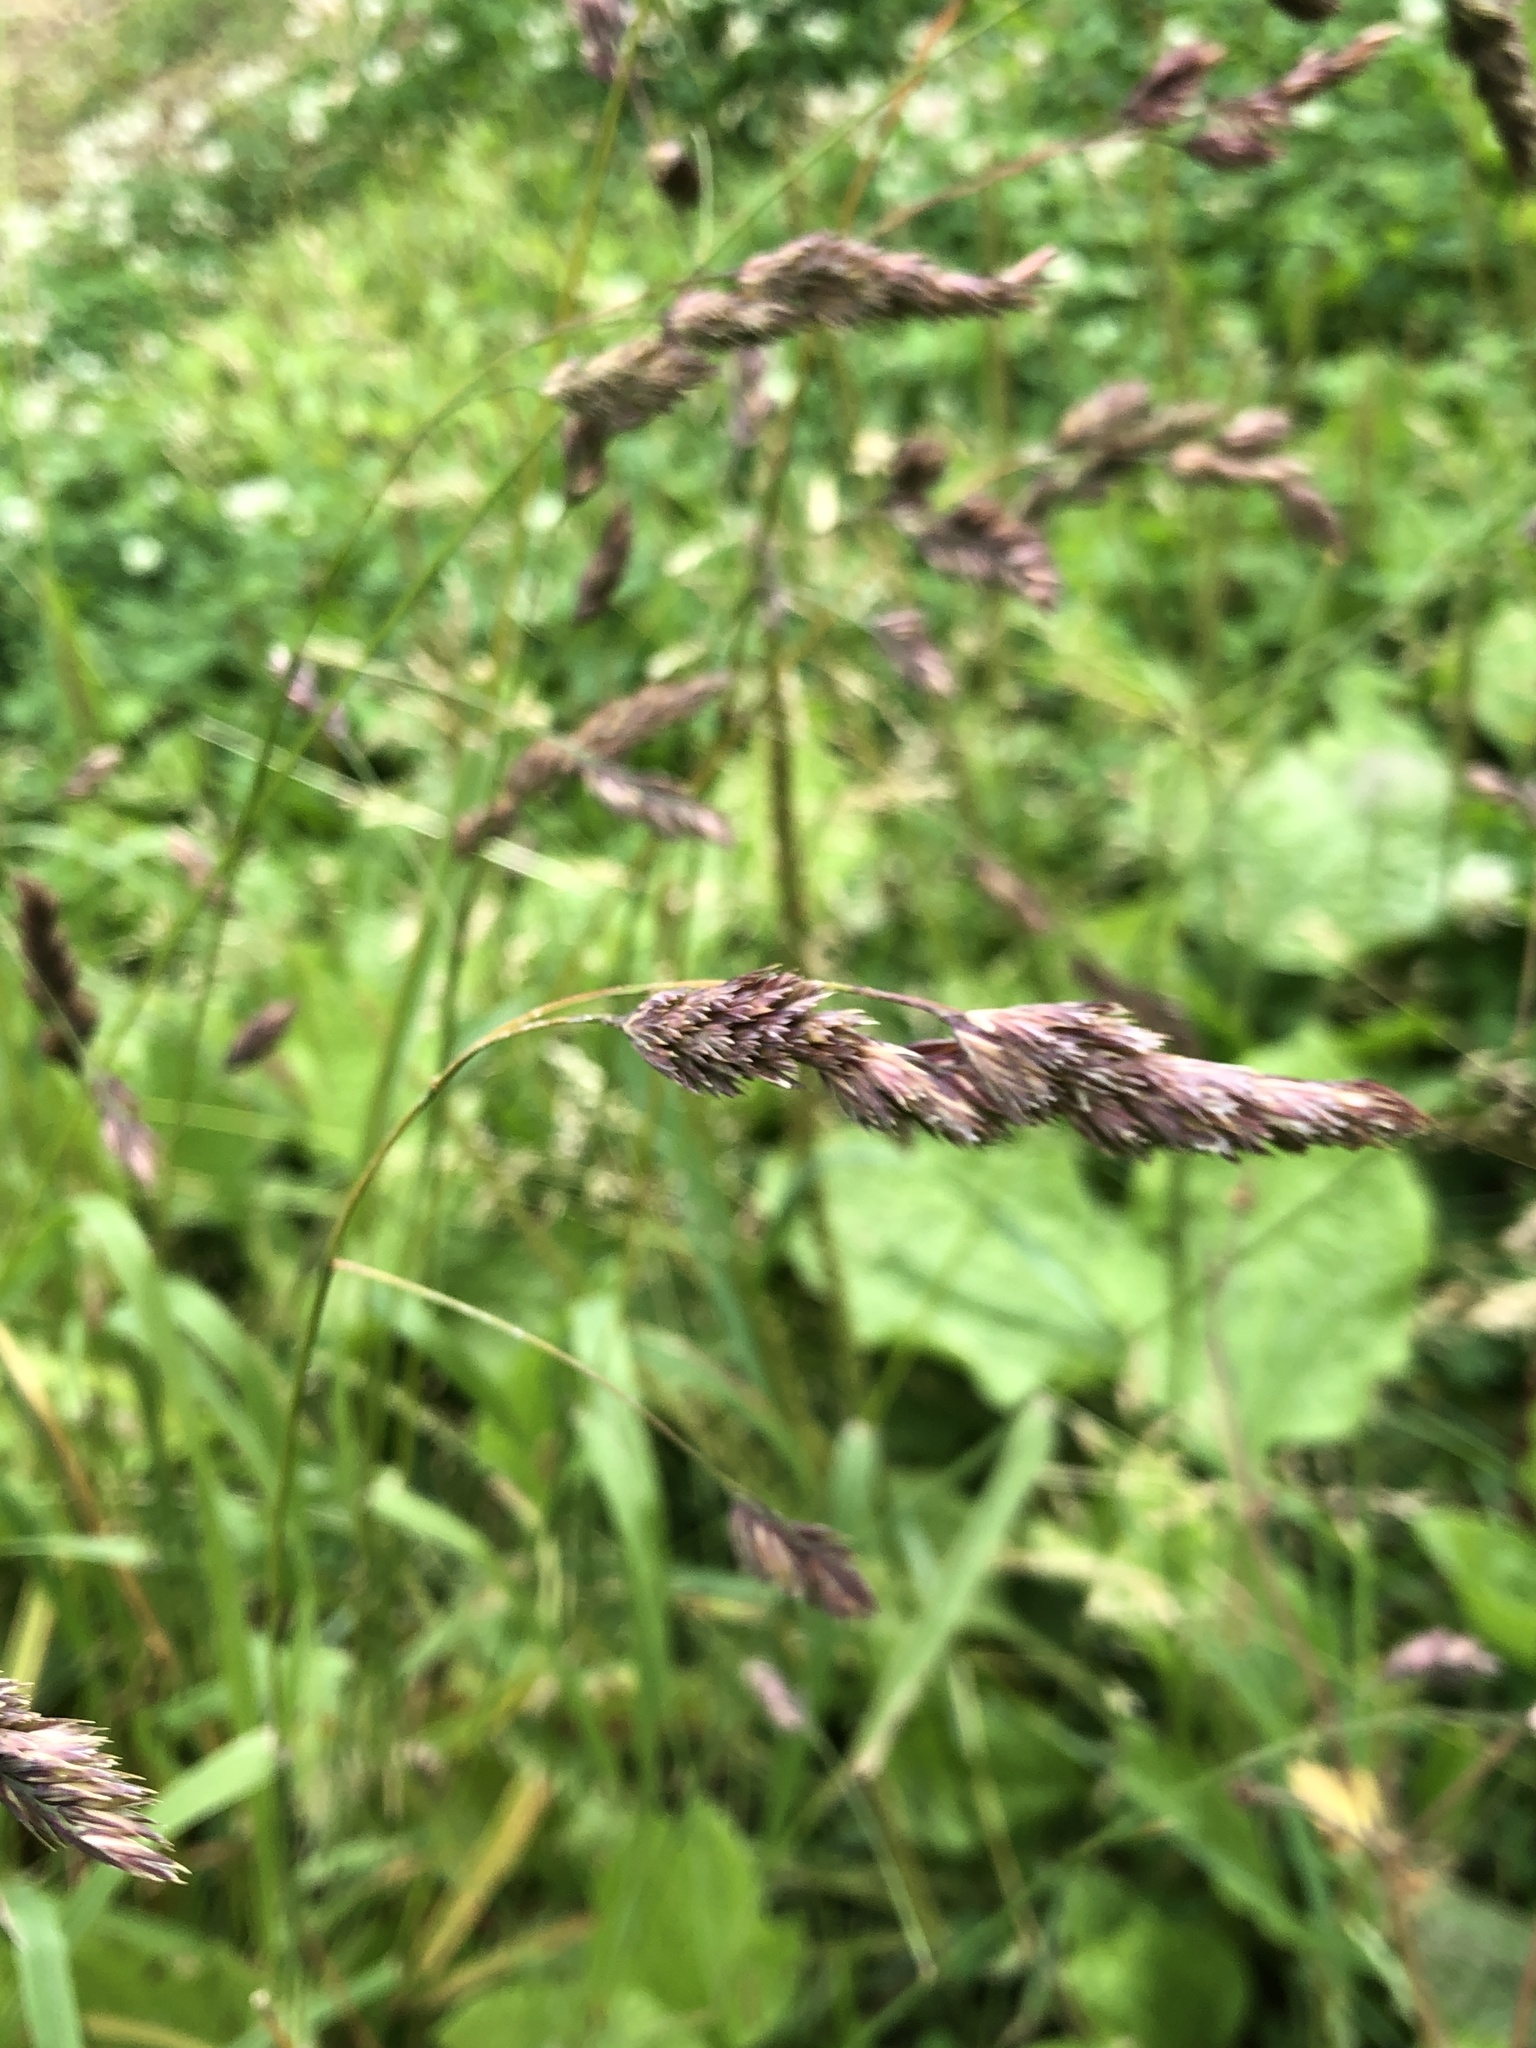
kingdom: Plantae
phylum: Tracheophyta
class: Liliopsida
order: Poales
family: Poaceae
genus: Dactylis
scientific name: Dactylis glomerata
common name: Orchardgrass
